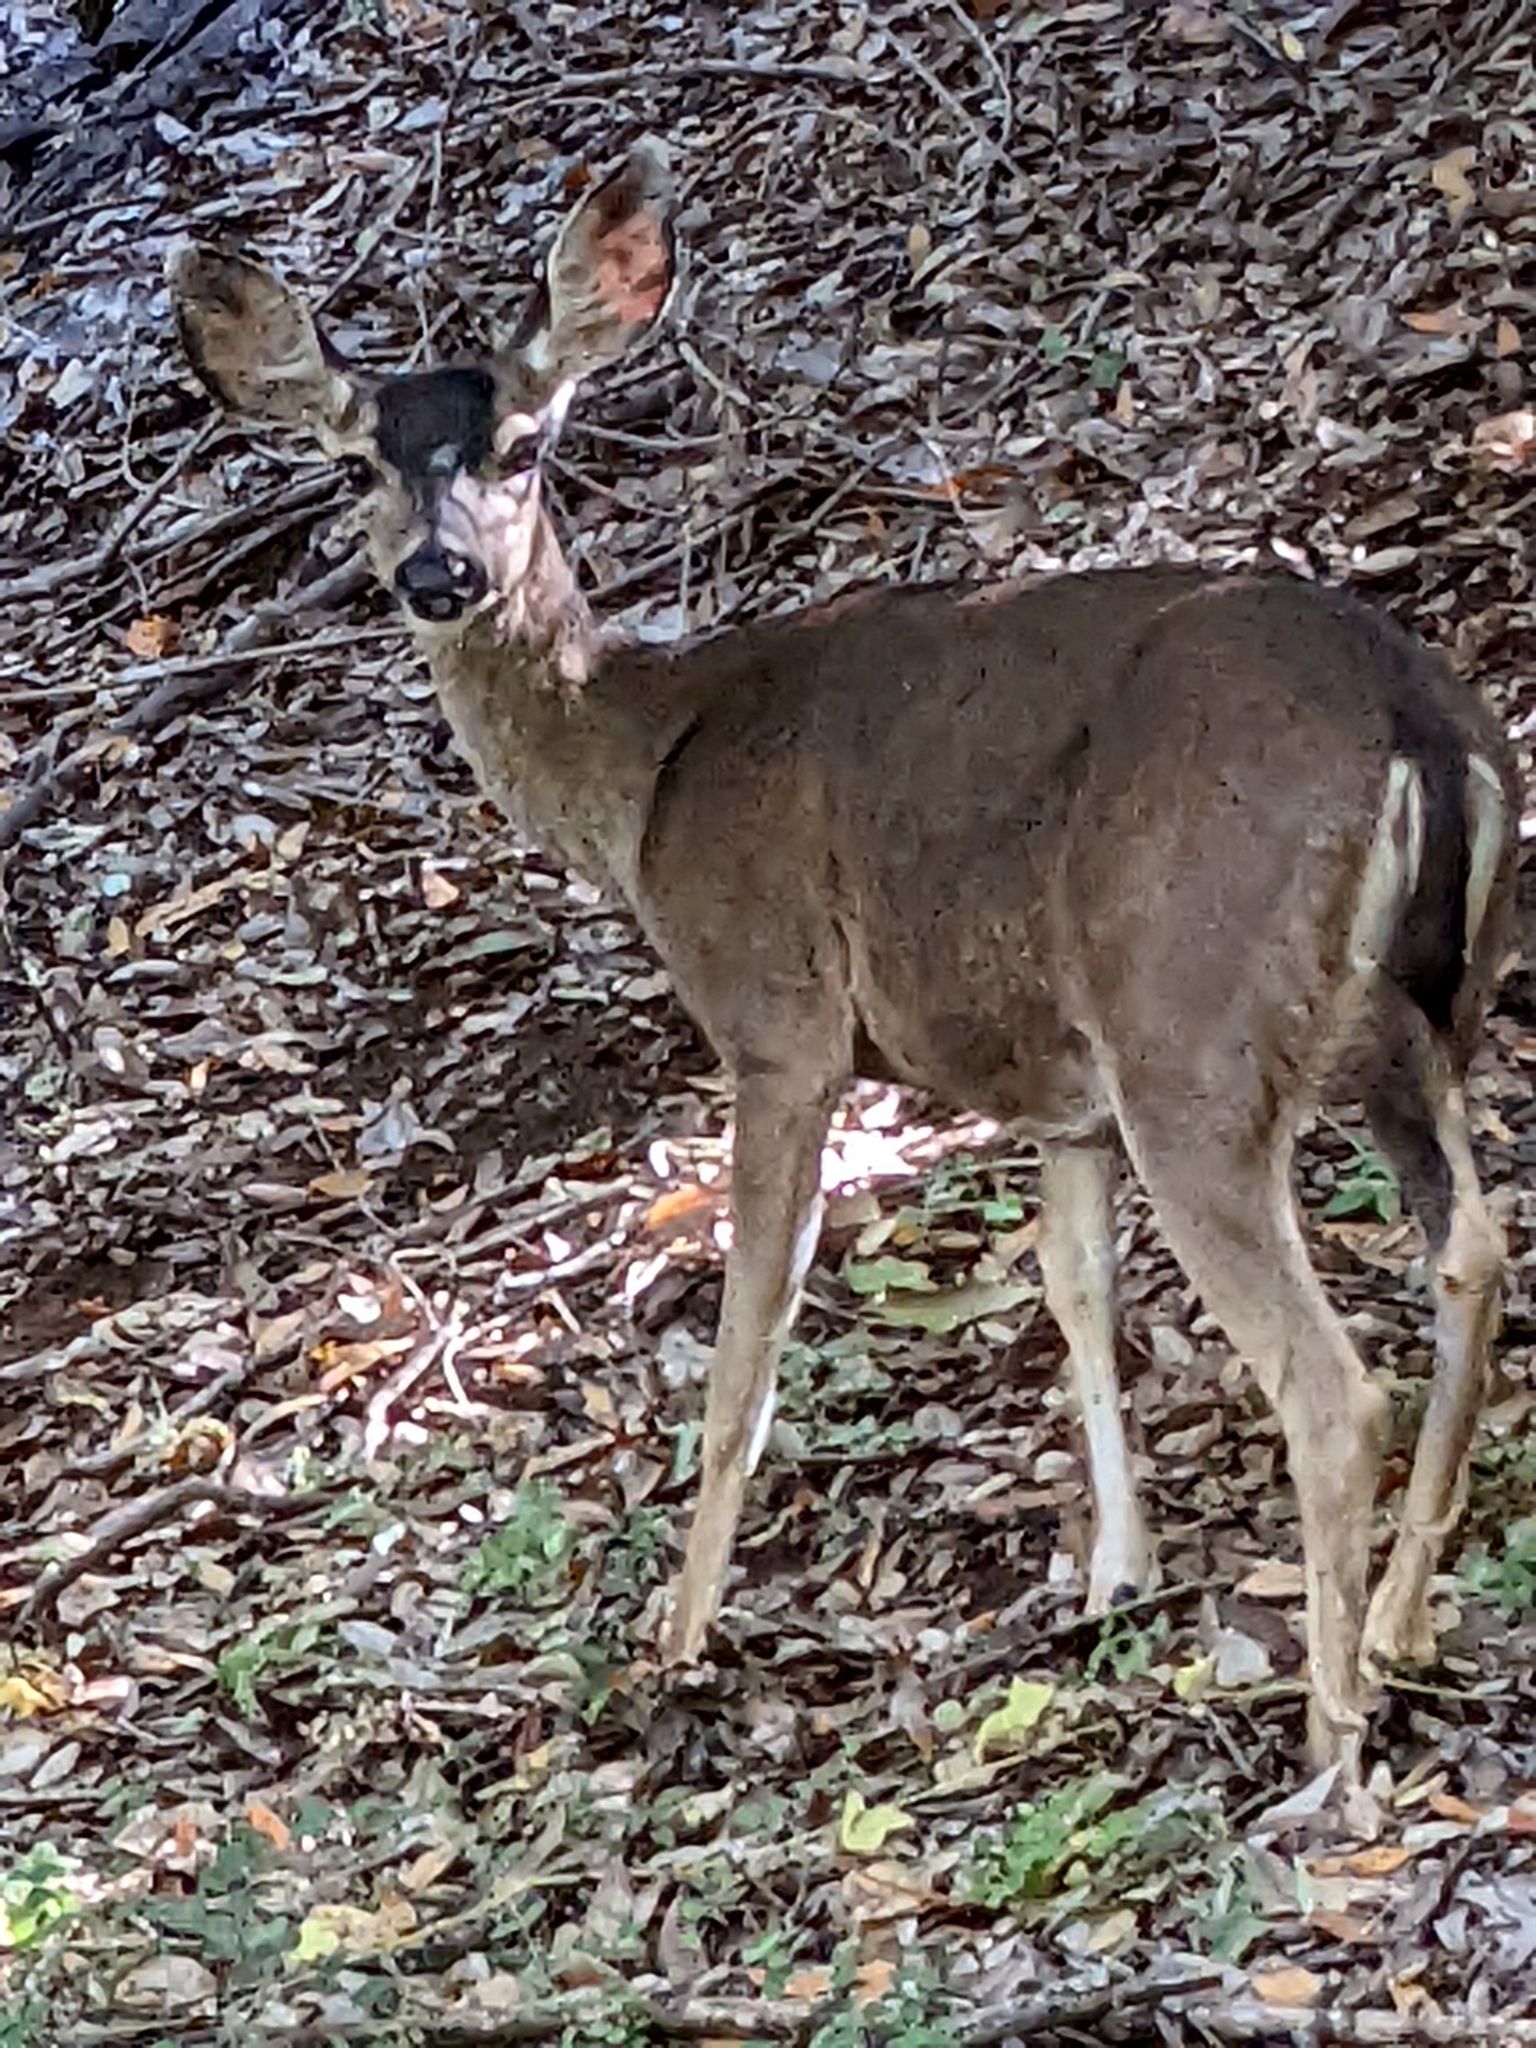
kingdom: Animalia
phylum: Chordata
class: Mammalia
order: Artiodactyla
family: Cervidae
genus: Odocoileus
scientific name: Odocoileus hemionus
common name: Mule deer
